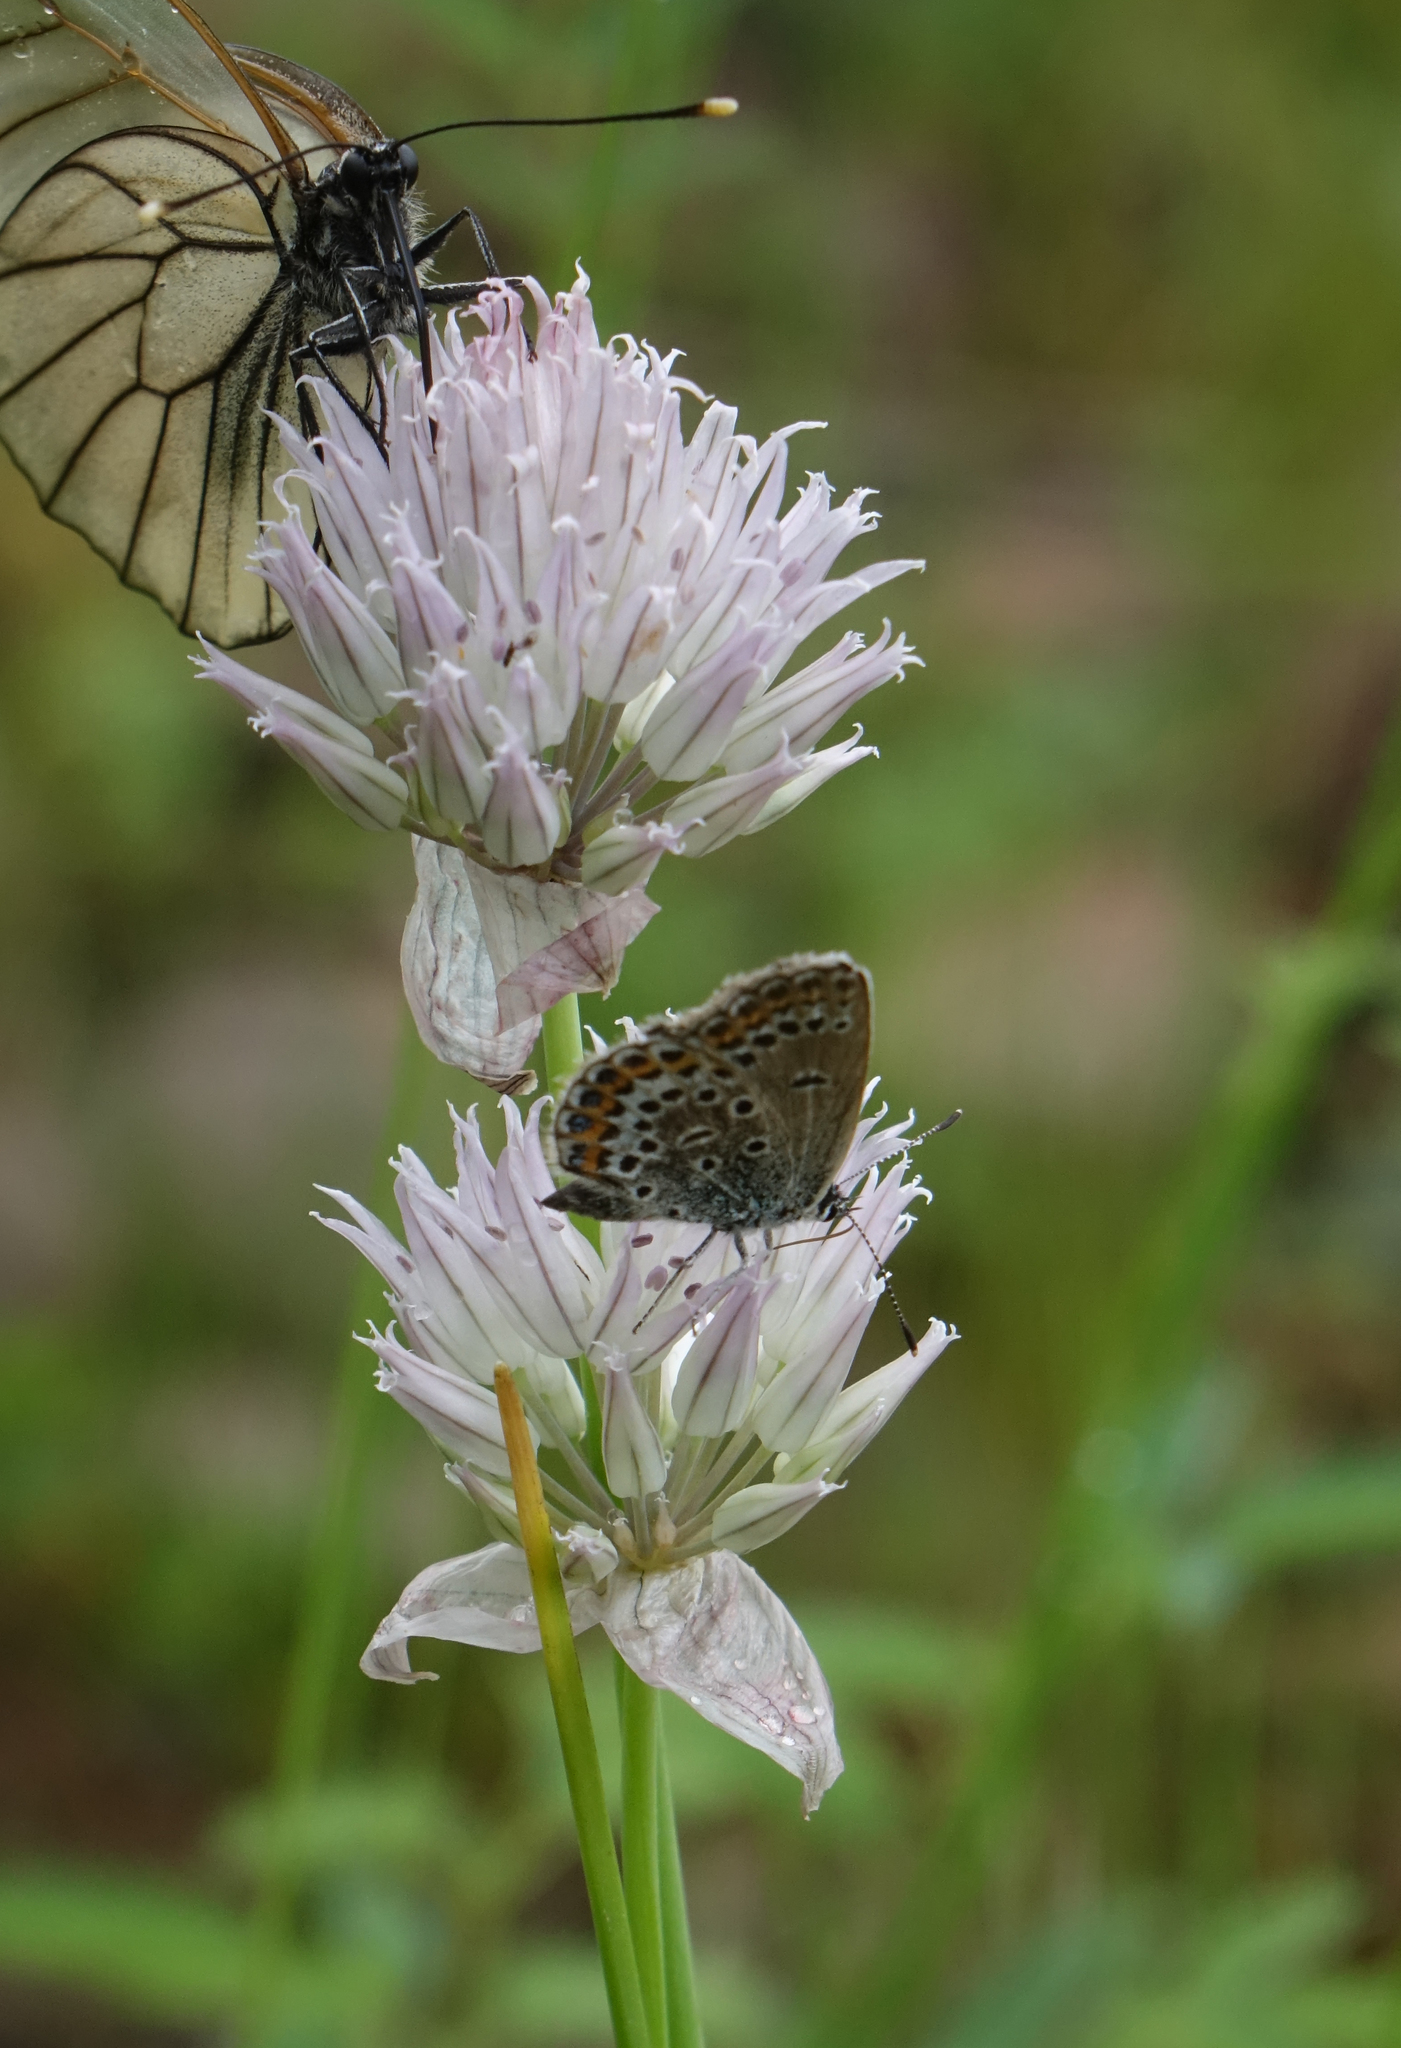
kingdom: Animalia
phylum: Arthropoda
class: Insecta
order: Lepidoptera
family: Lycaenidae
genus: Plebejus
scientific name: Plebejus argus
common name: Silver-studded blue
